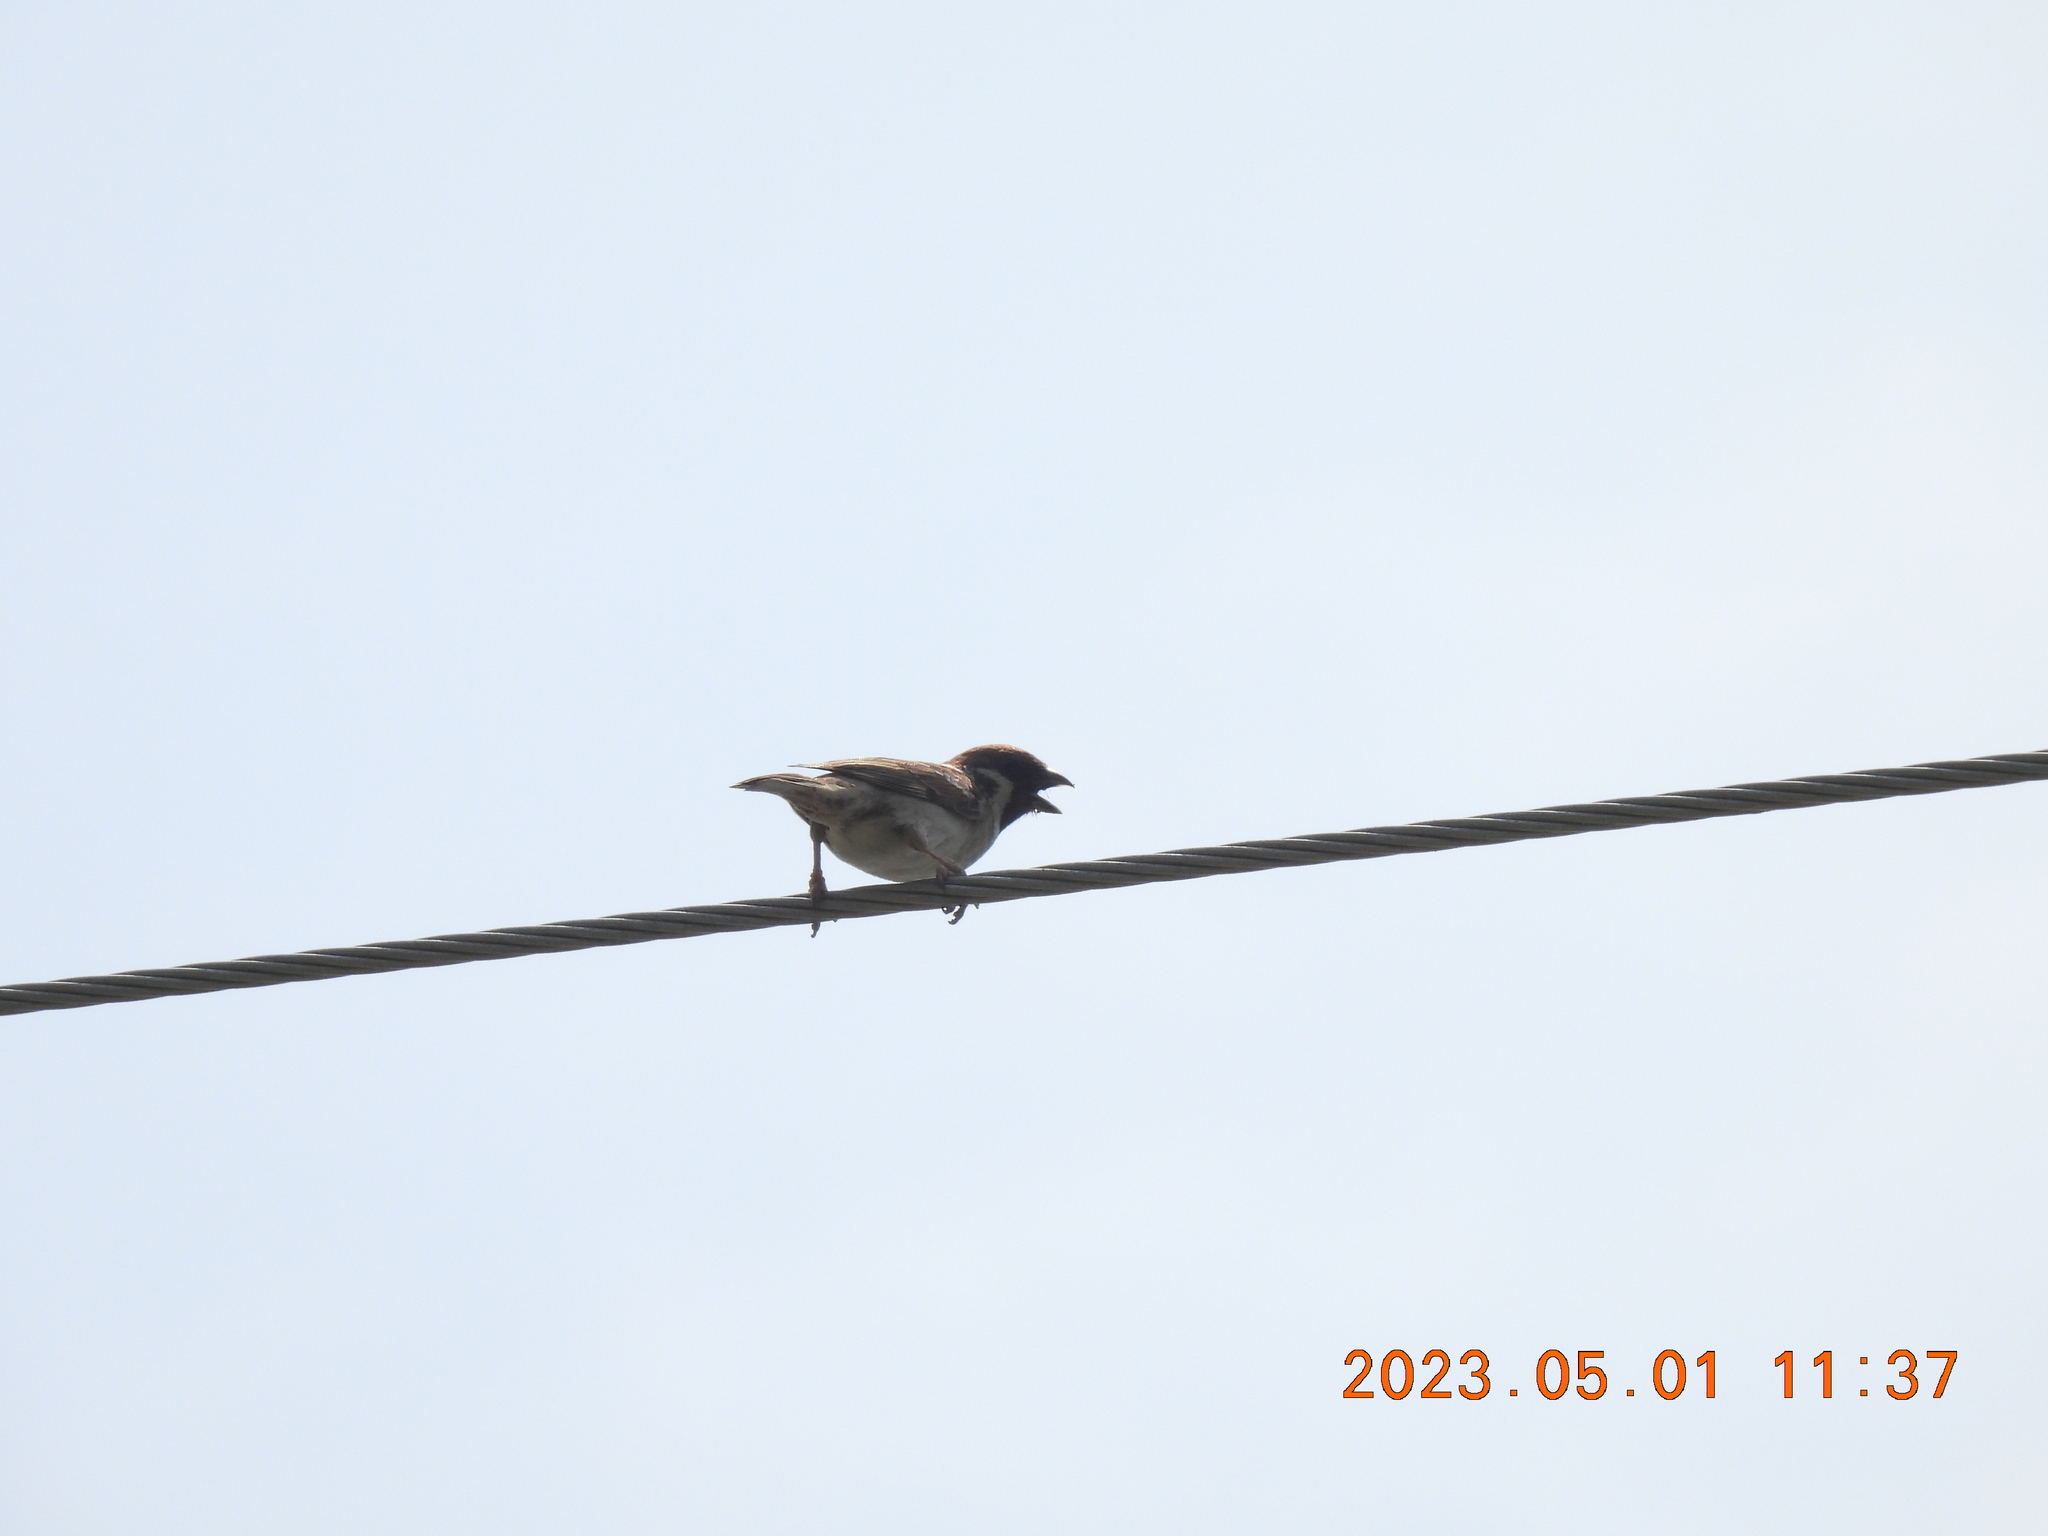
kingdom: Animalia
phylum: Chordata
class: Aves
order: Passeriformes
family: Passeridae
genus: Passer
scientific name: Passer montanus
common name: Eurasian tree sparrow
